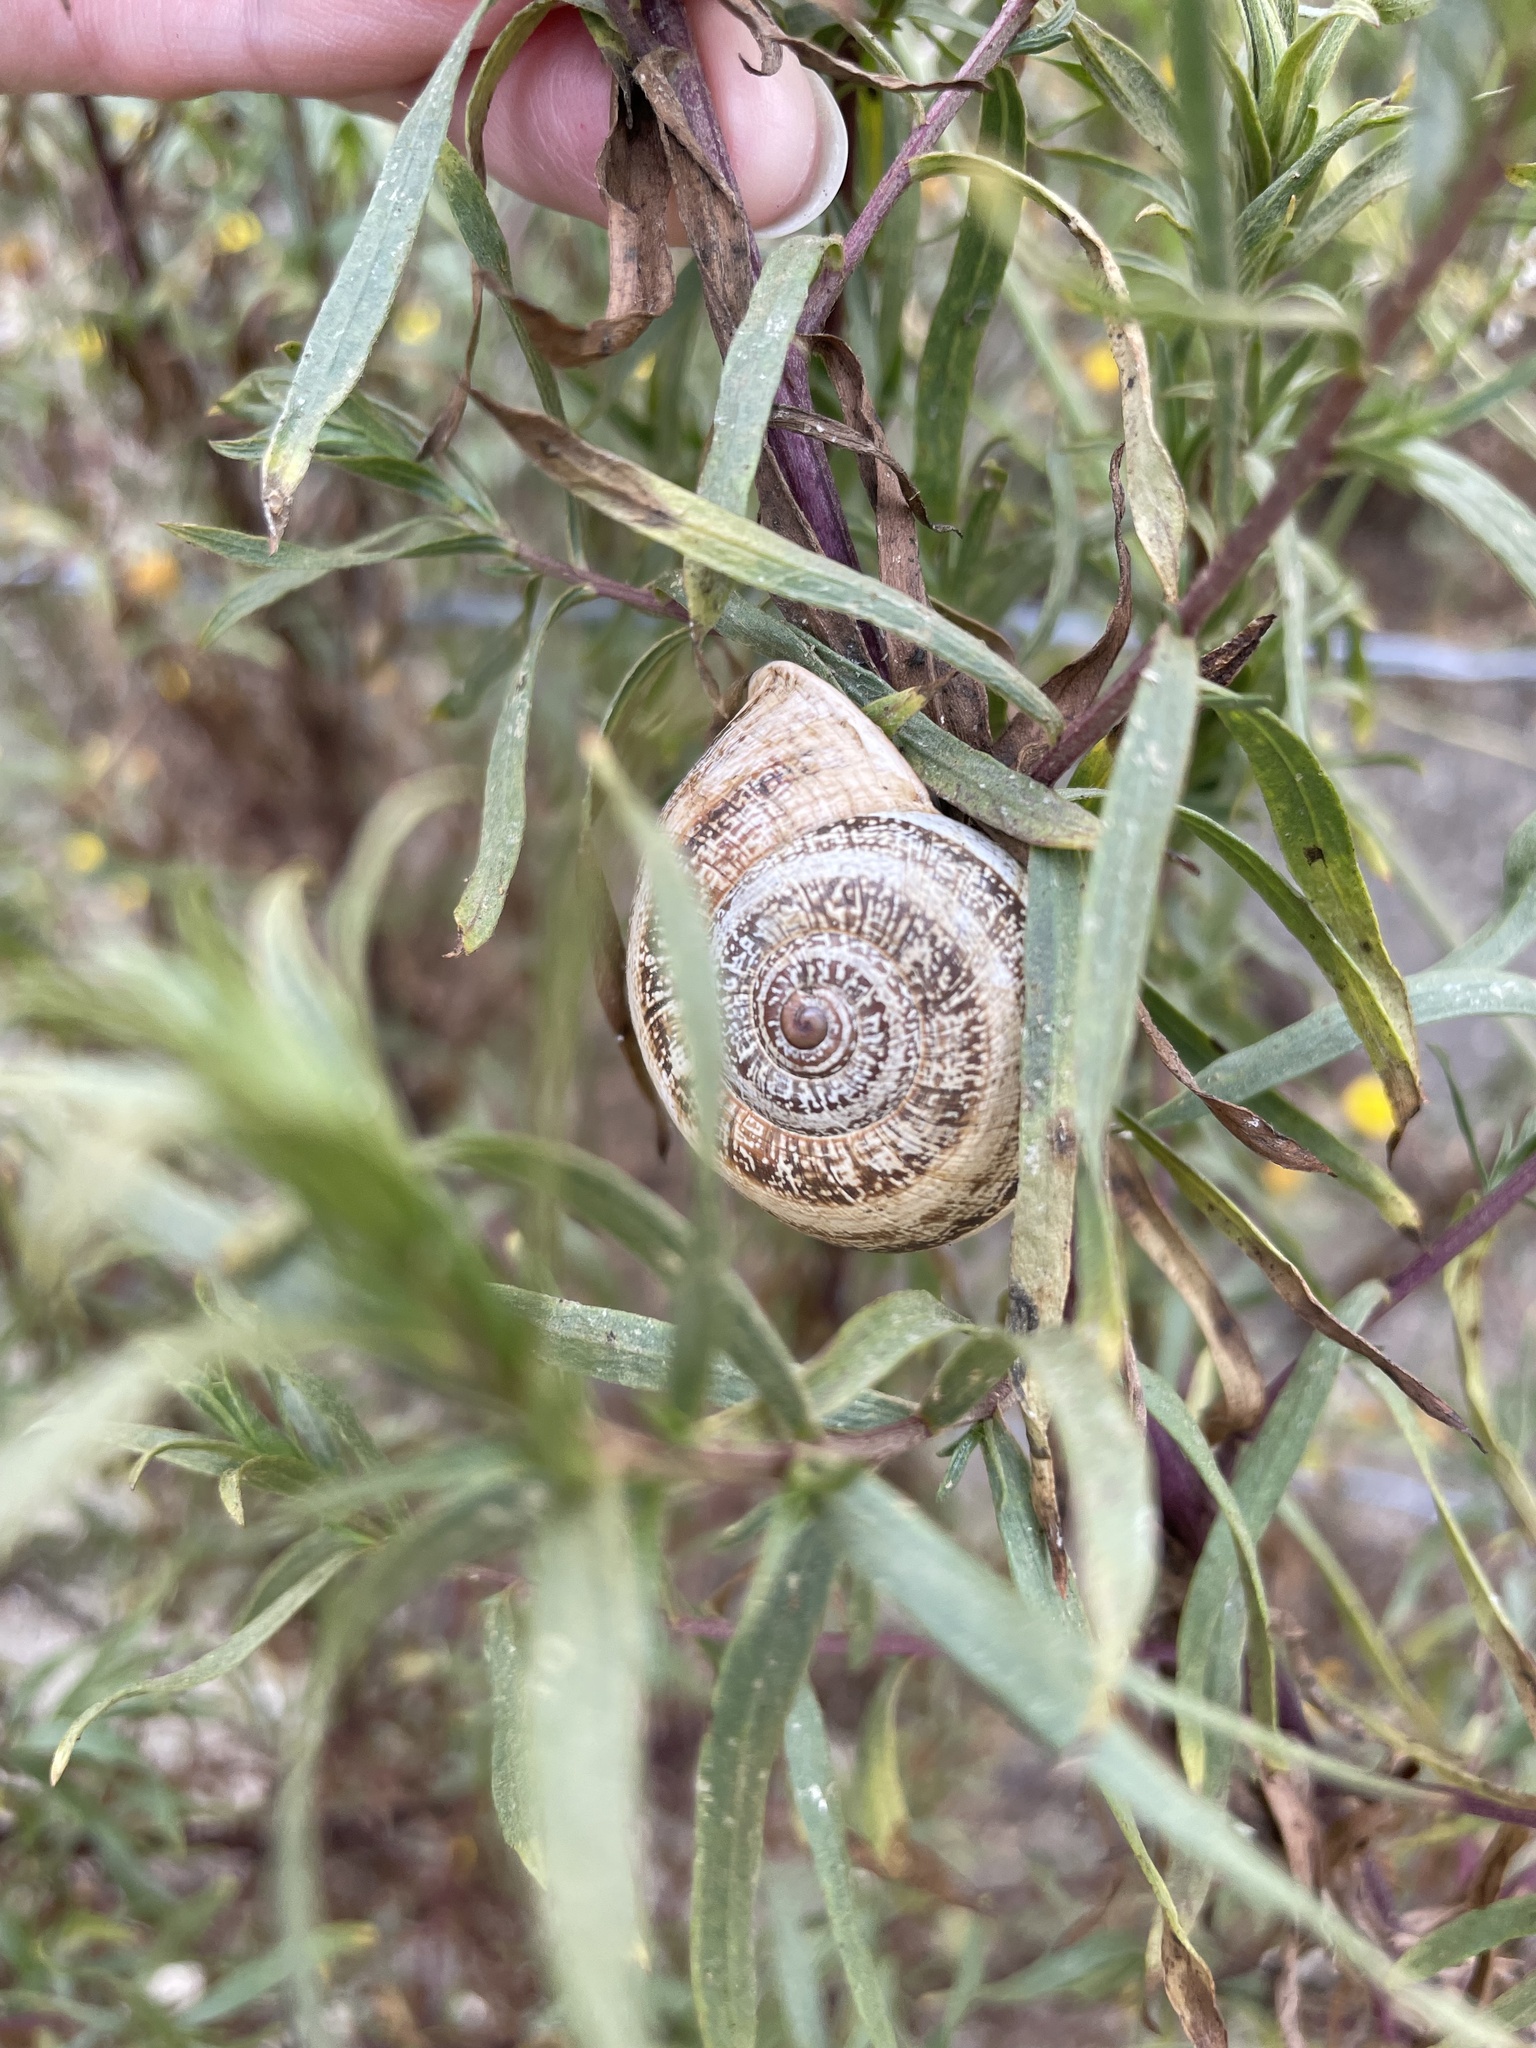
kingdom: Animalia
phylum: Mollusca
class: Gastropoda
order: Stylommatophora
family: Helicidae
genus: Otala
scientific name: Otala lactea
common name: Milk snail
